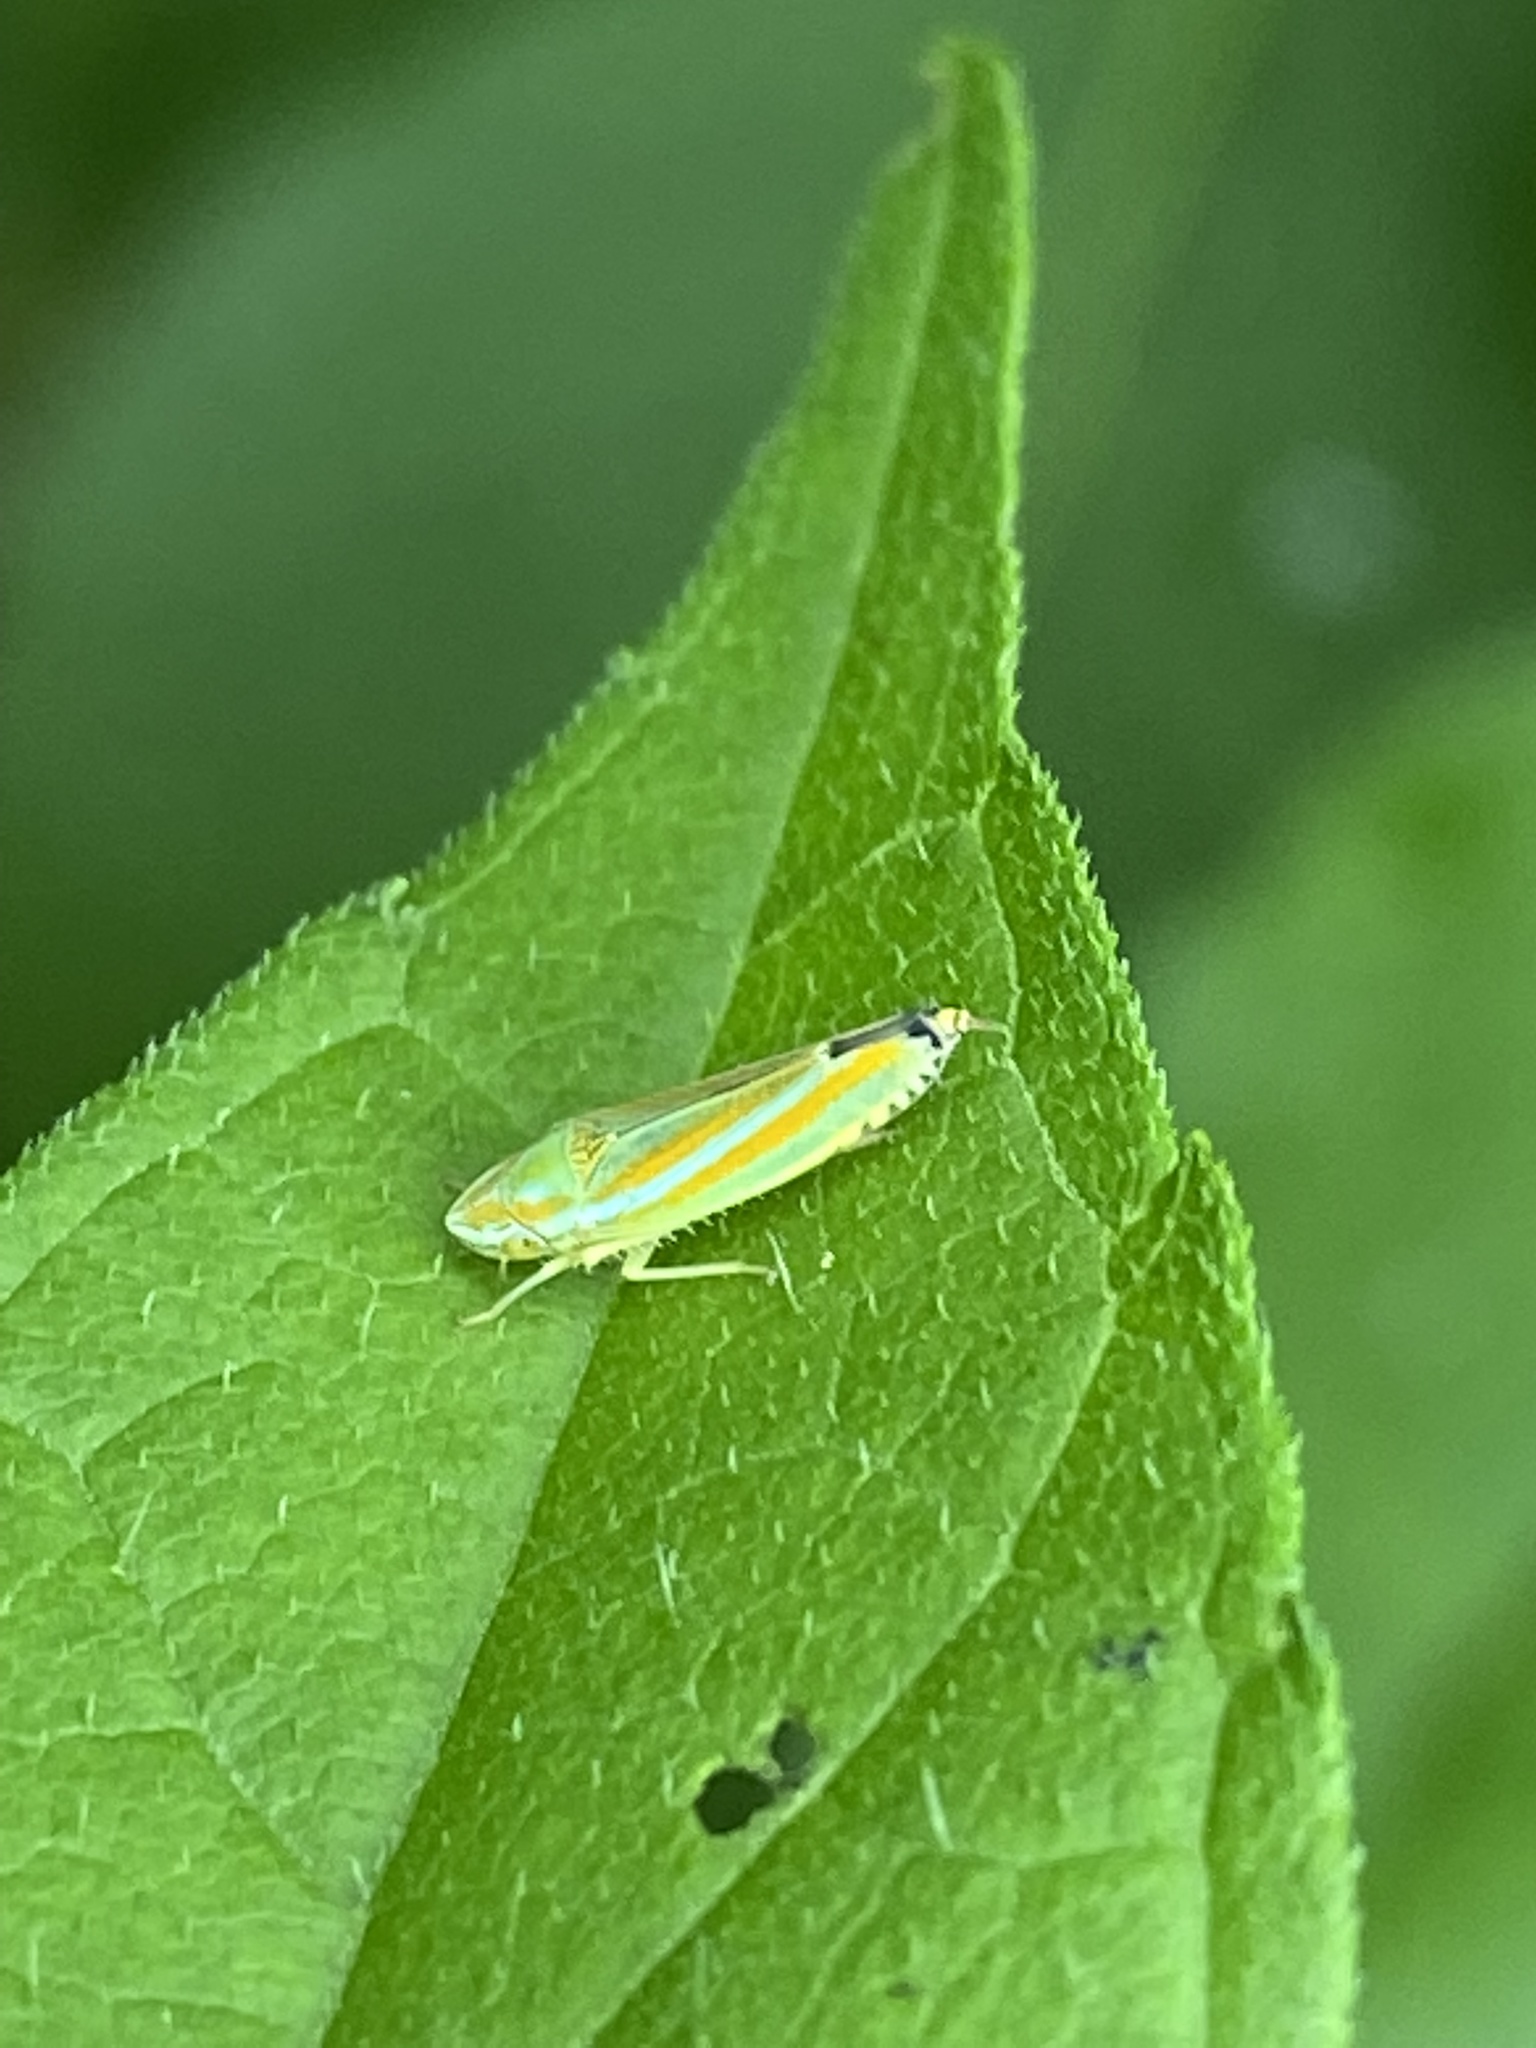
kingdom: Animalia
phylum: Arthropoda
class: Insecta
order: Hemiptera
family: Cicadellidae
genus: Graphocephala
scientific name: Graphocephala versuta
